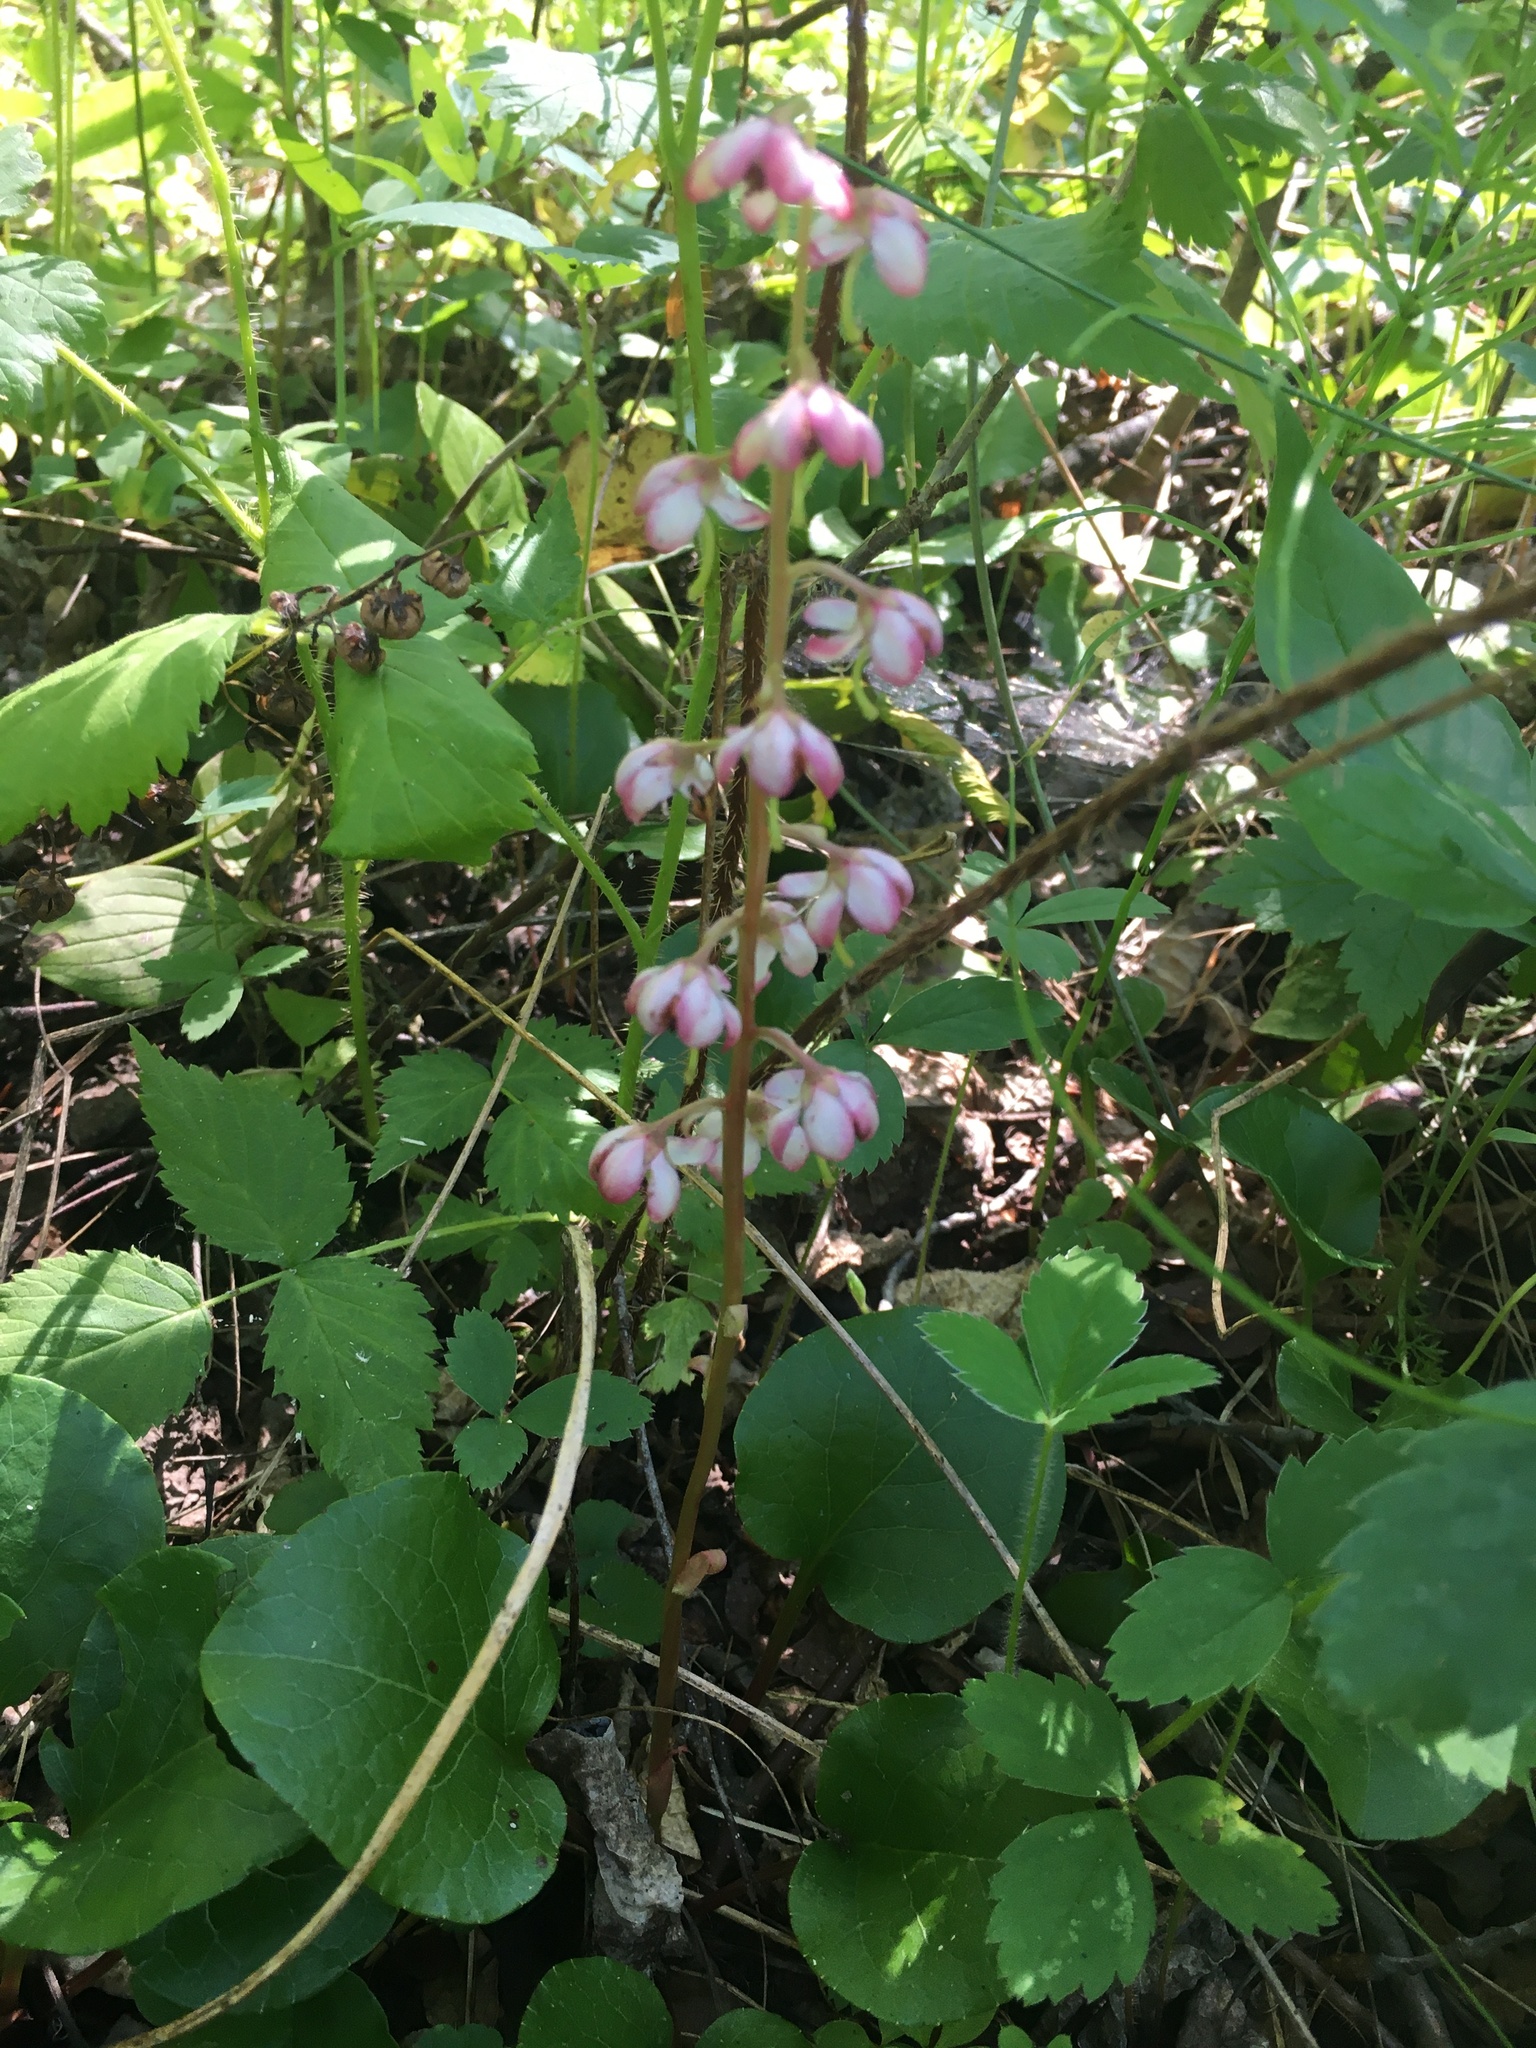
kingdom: Plantae
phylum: Tracheophyta
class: Magnoliopsida
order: Ericales
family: Ericaceae
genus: Pyrola
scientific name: Pyrola asarifolia
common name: Bog wintergreen
